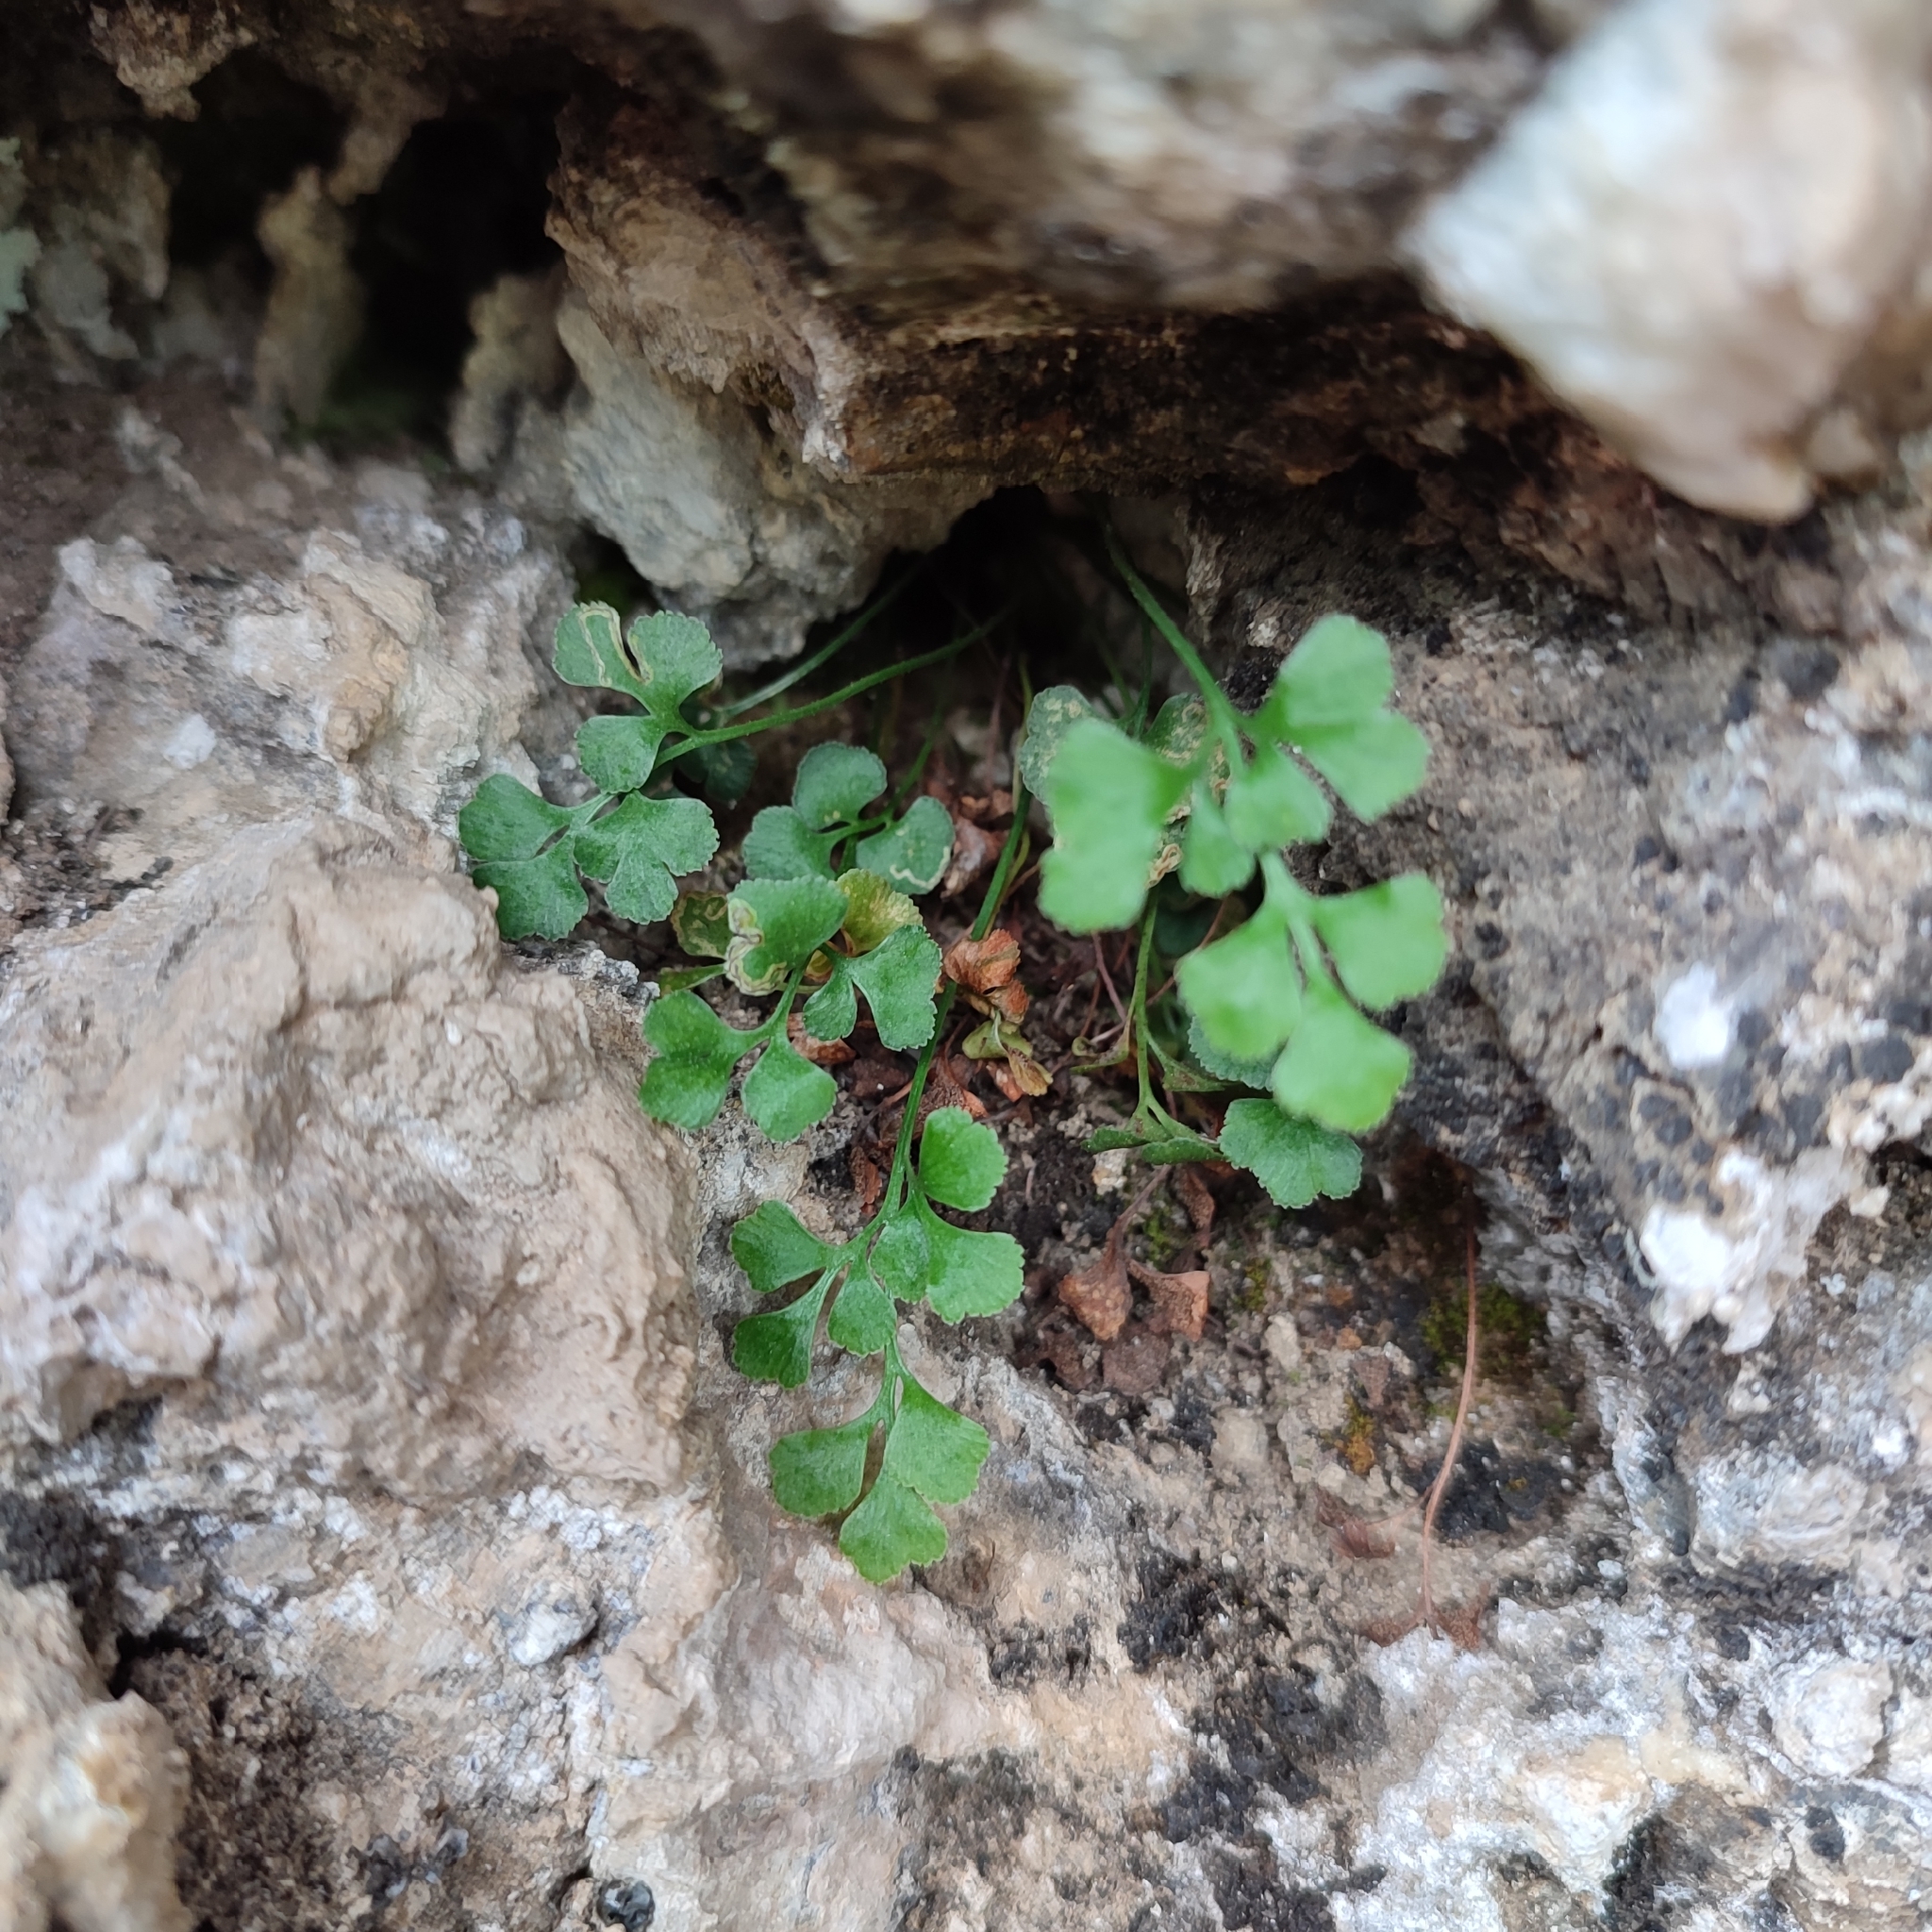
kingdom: Plantae
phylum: Tracheophyta
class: Polypodiopsida
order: Polypodiales
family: Aspleniaceae
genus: Asplenium
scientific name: Asplenium ruta-muraria
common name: Wall-rue
